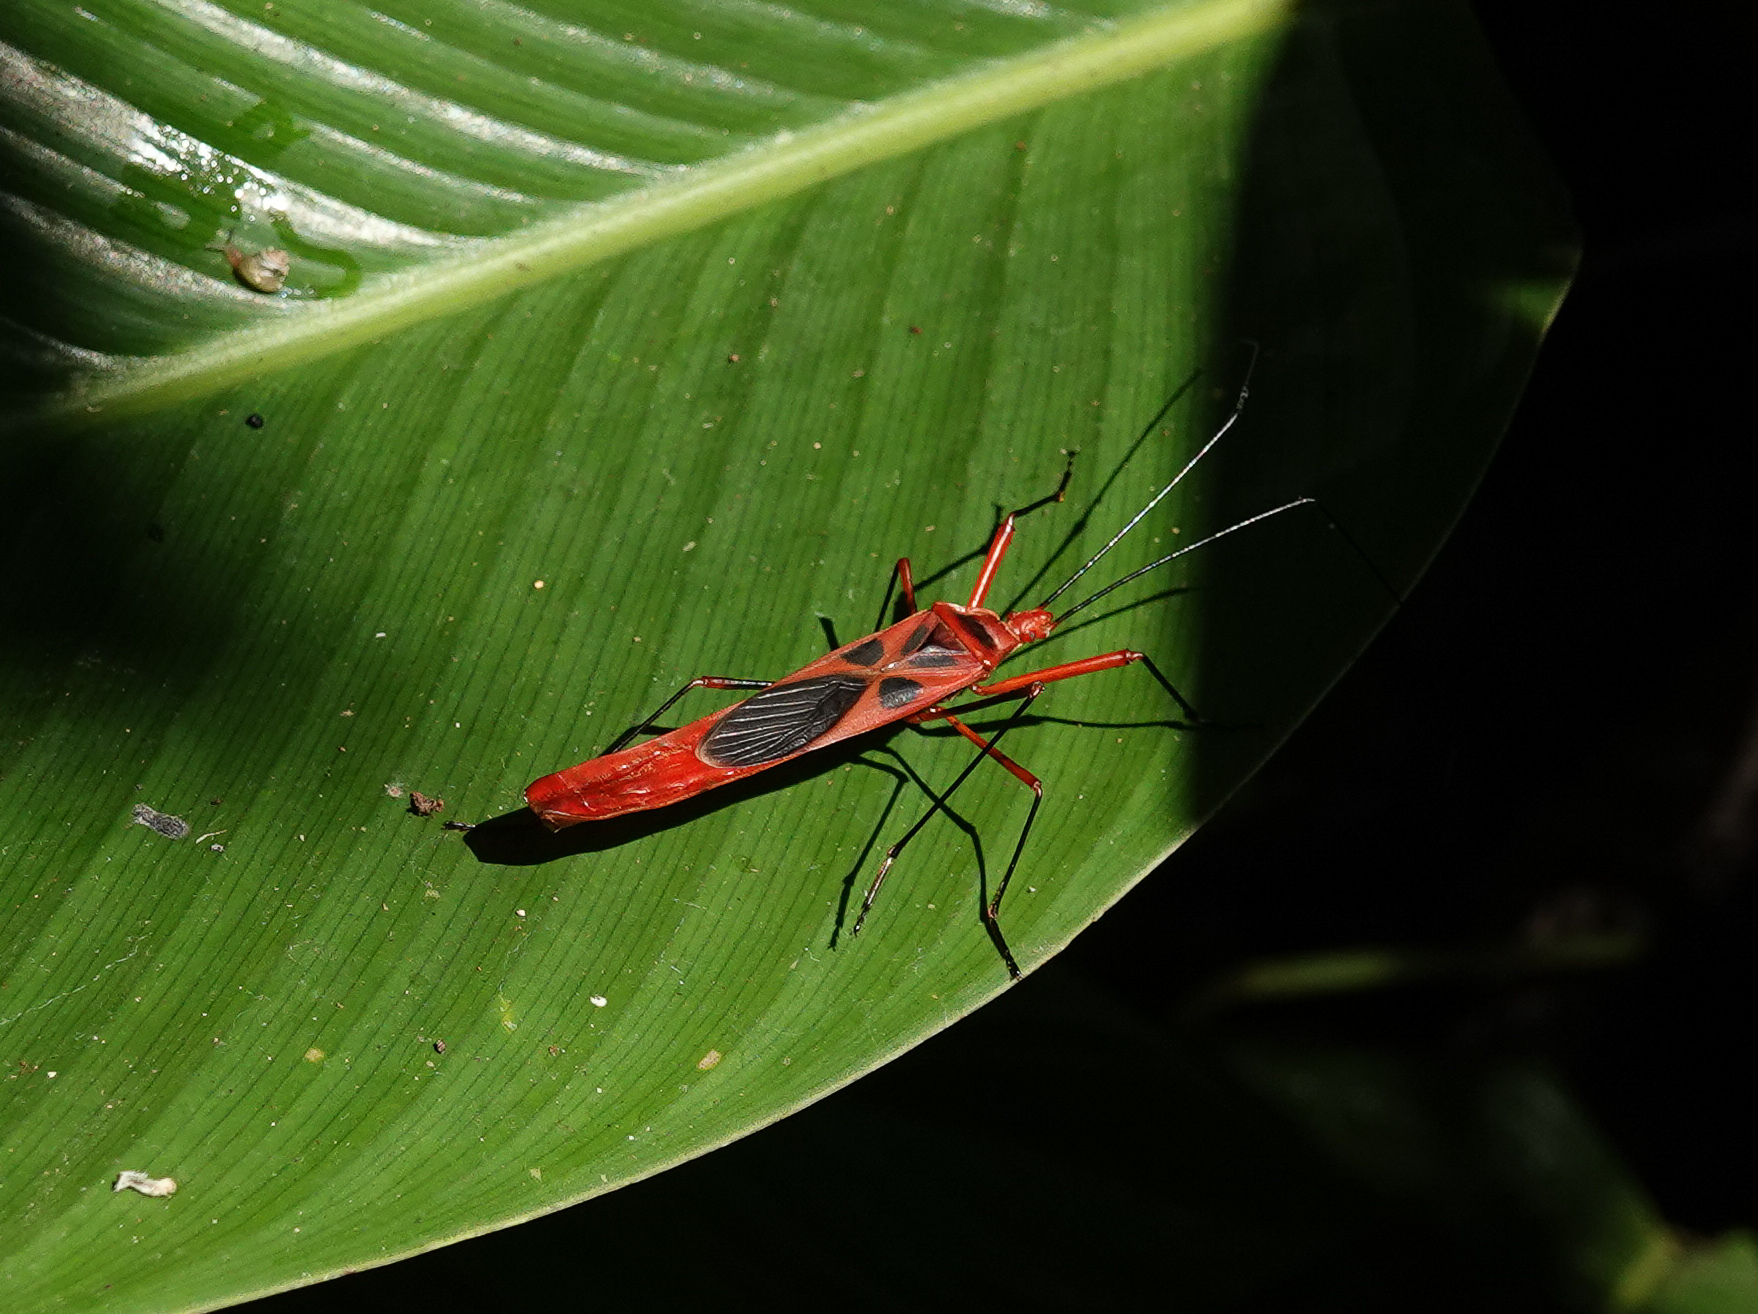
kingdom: Animalia
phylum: Arthropoda
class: Insecta
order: Hemiptera
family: Largidae
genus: Macrocheraia
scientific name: Macrocheraia grandis
